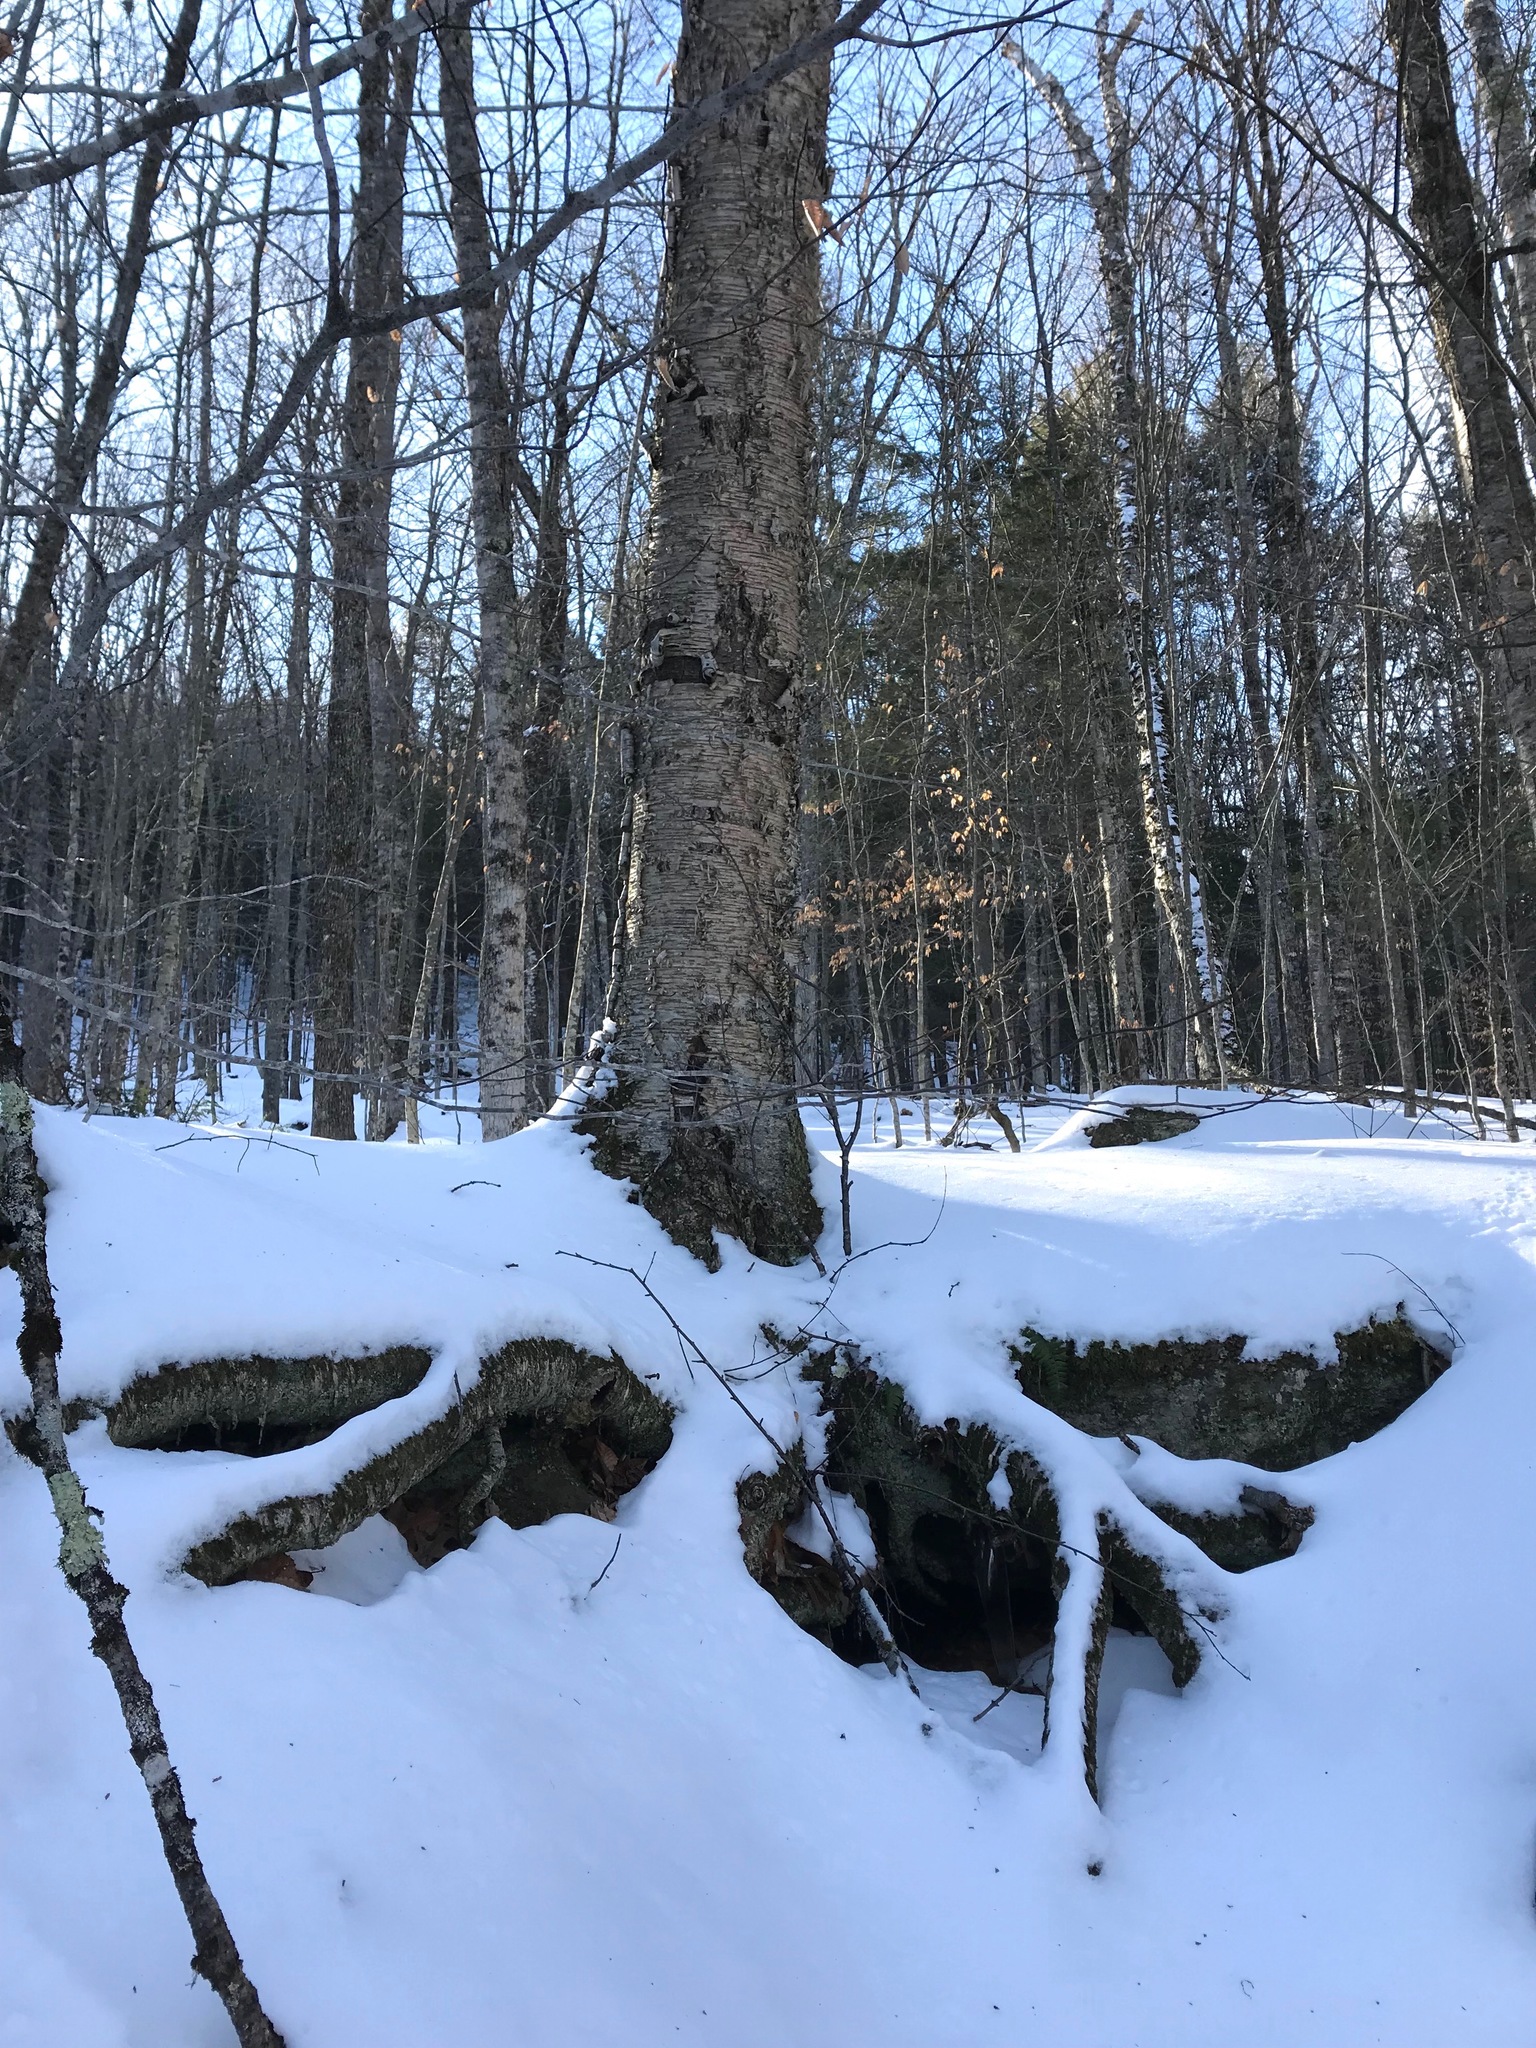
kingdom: Plantae
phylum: Tracheophyta
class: Magnoliopsida
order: Fagales
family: Betulaceae
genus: Betula
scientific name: Betula alleghaniensis
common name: Yellow birch
